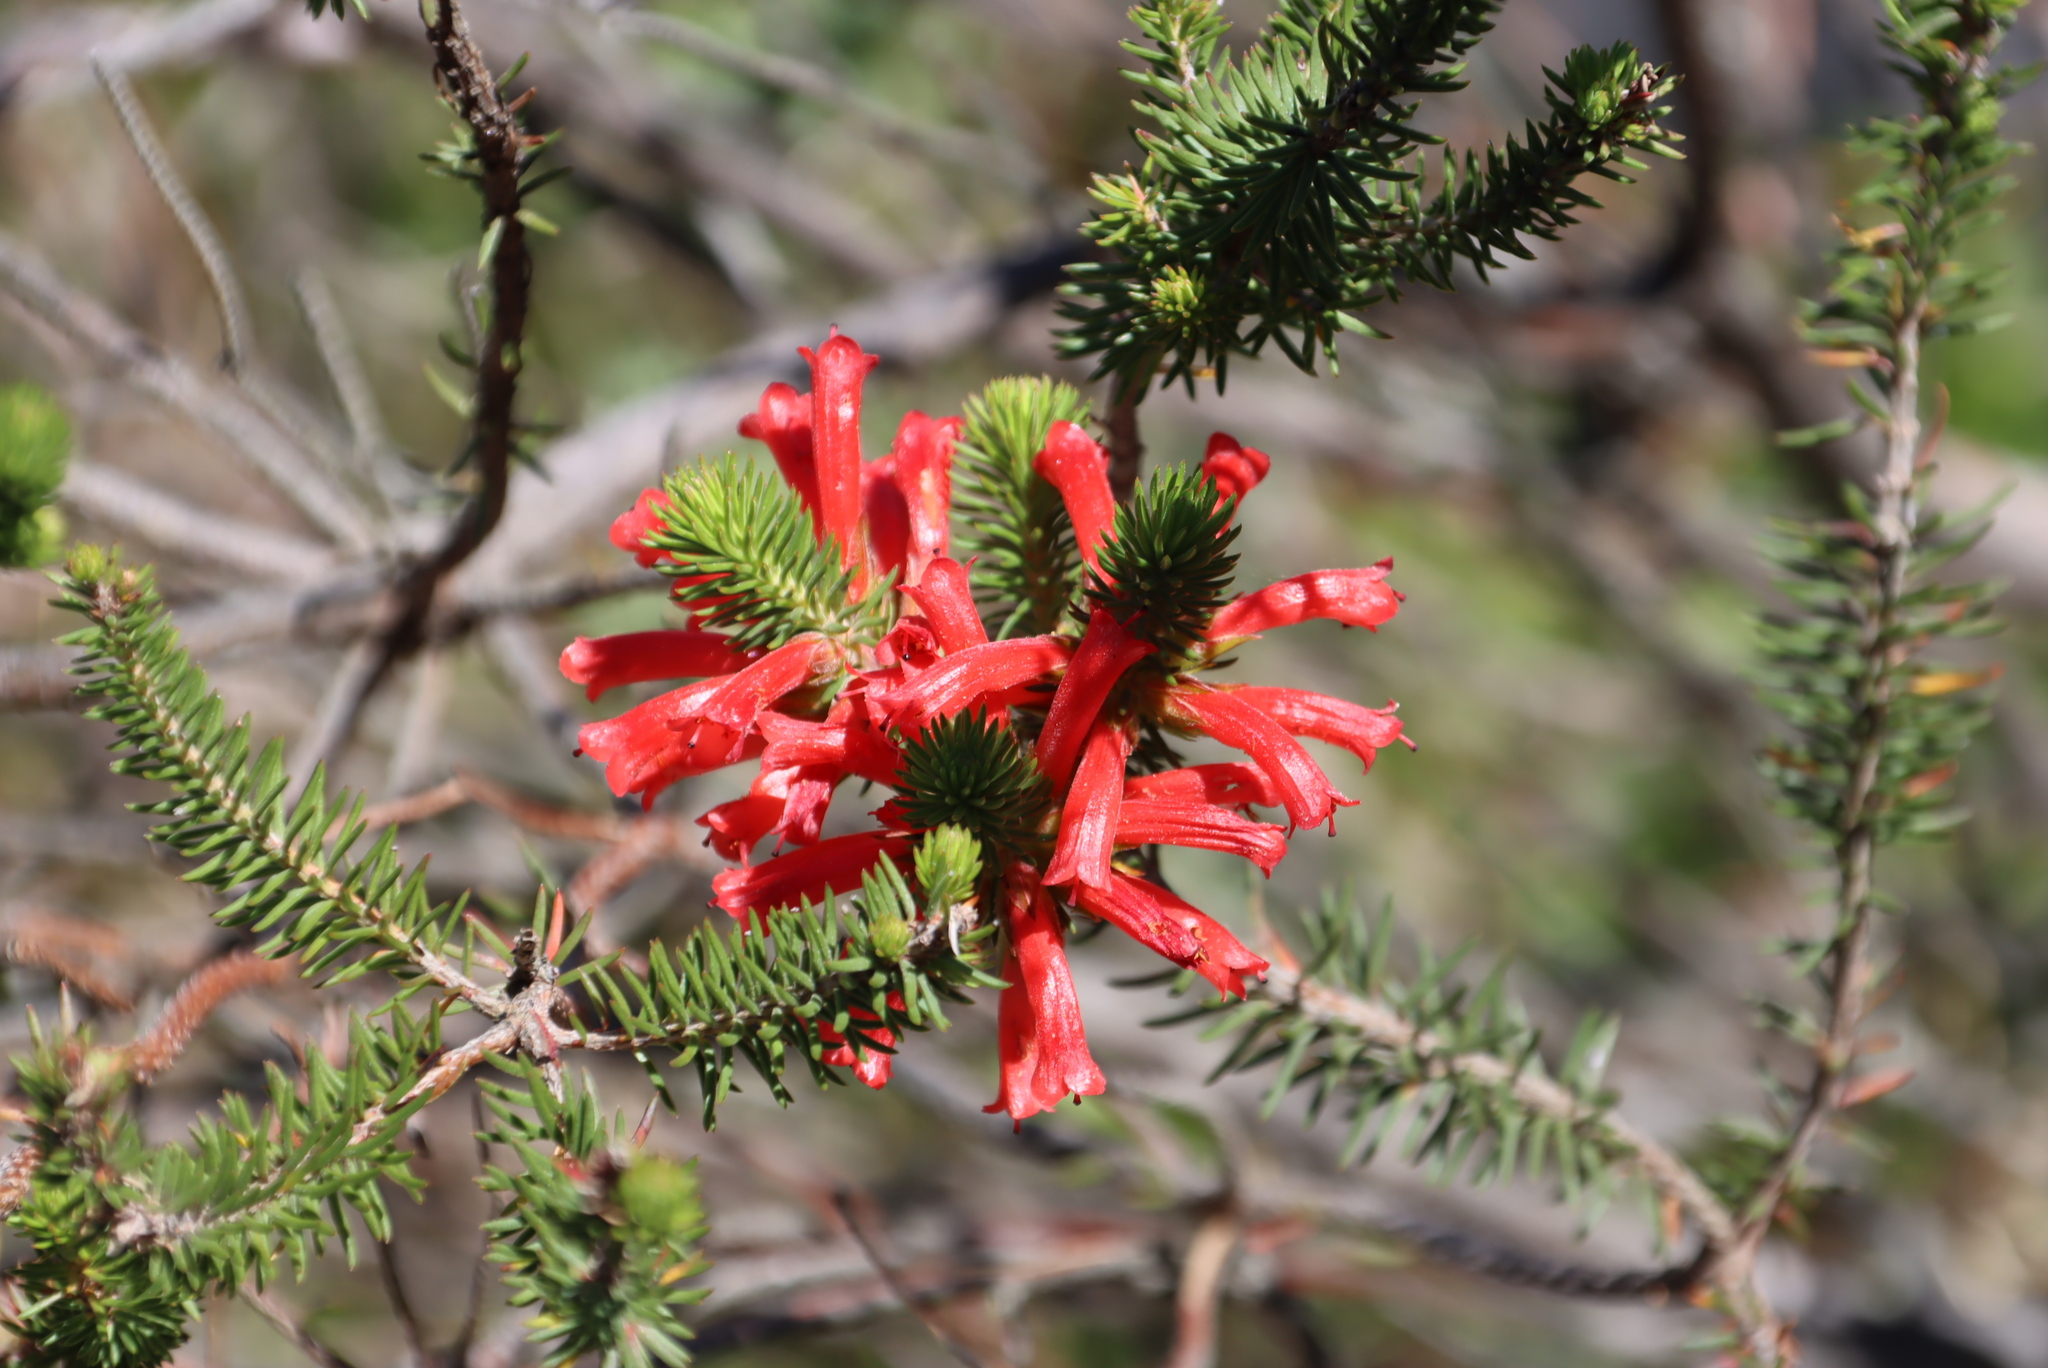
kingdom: Plantae
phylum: Tracheophyta
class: Magnoliopsida
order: Ericales
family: Ericaceae
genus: Erica
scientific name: Erica abietina
